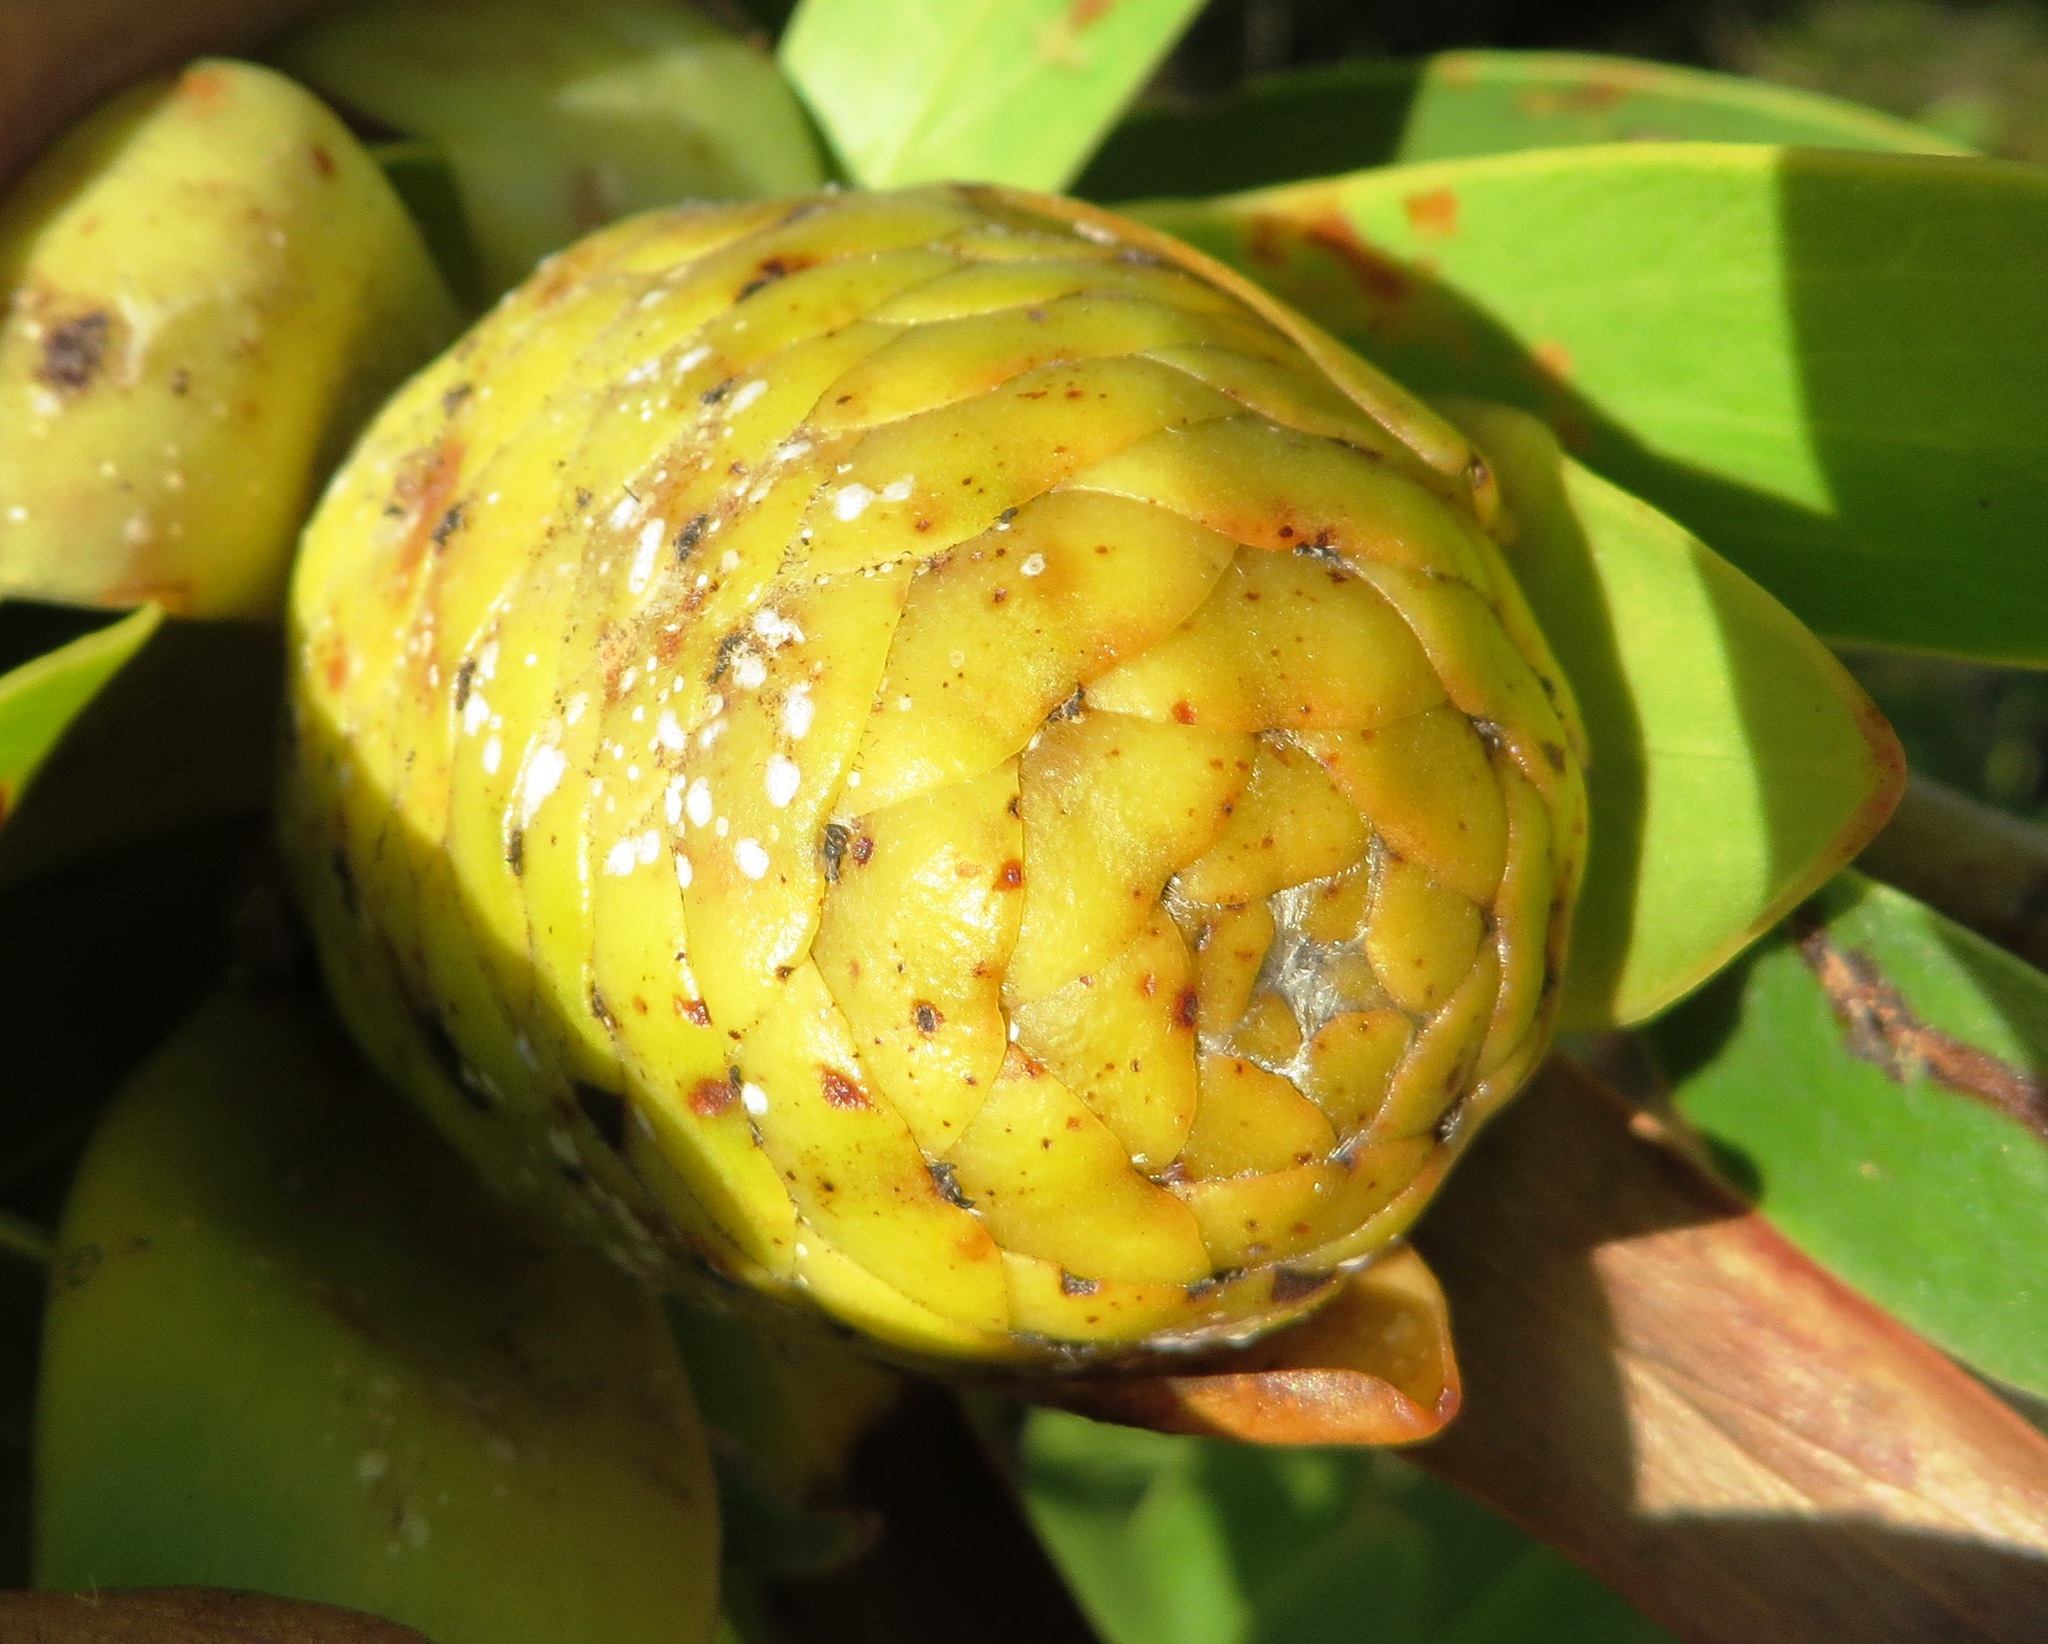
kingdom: Plantae
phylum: Tracheophyta
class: Magnoliopsida
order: Proteales
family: Proteaceae
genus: Leucadendron
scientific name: Leucadendron laureolum
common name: Golden sunshinebush
